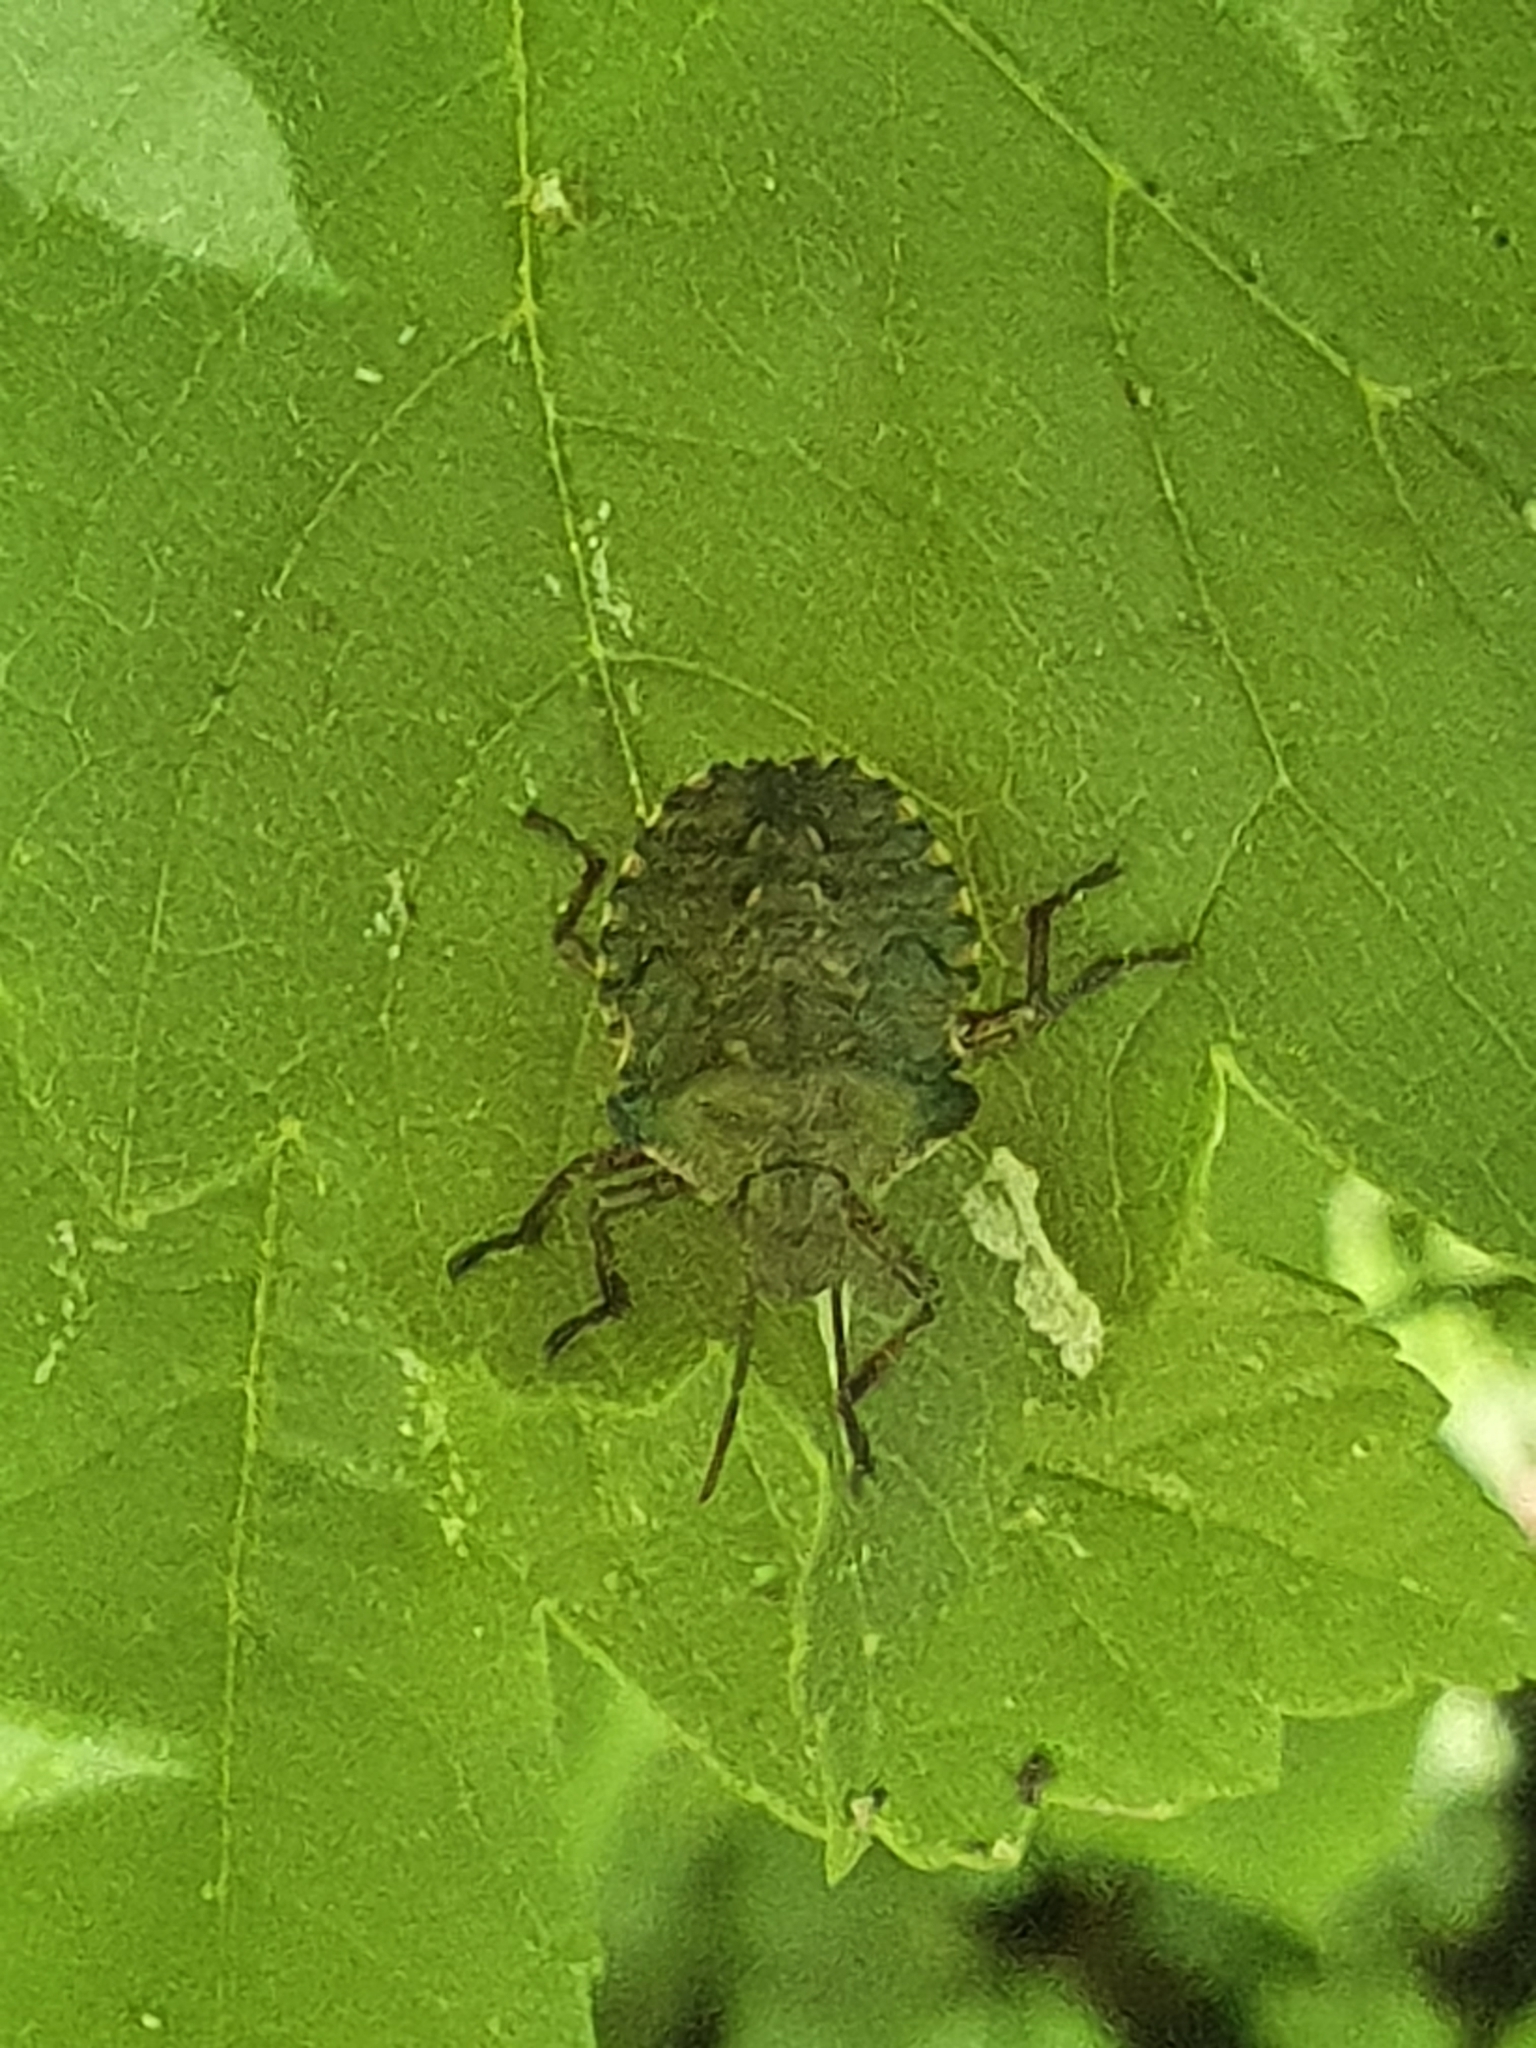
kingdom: Animalia
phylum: Arthropoda
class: Insecta
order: Hemiptera
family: Pentatomidae
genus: Pentatoma
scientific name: Pentatoma rufipes
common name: Forest bug
